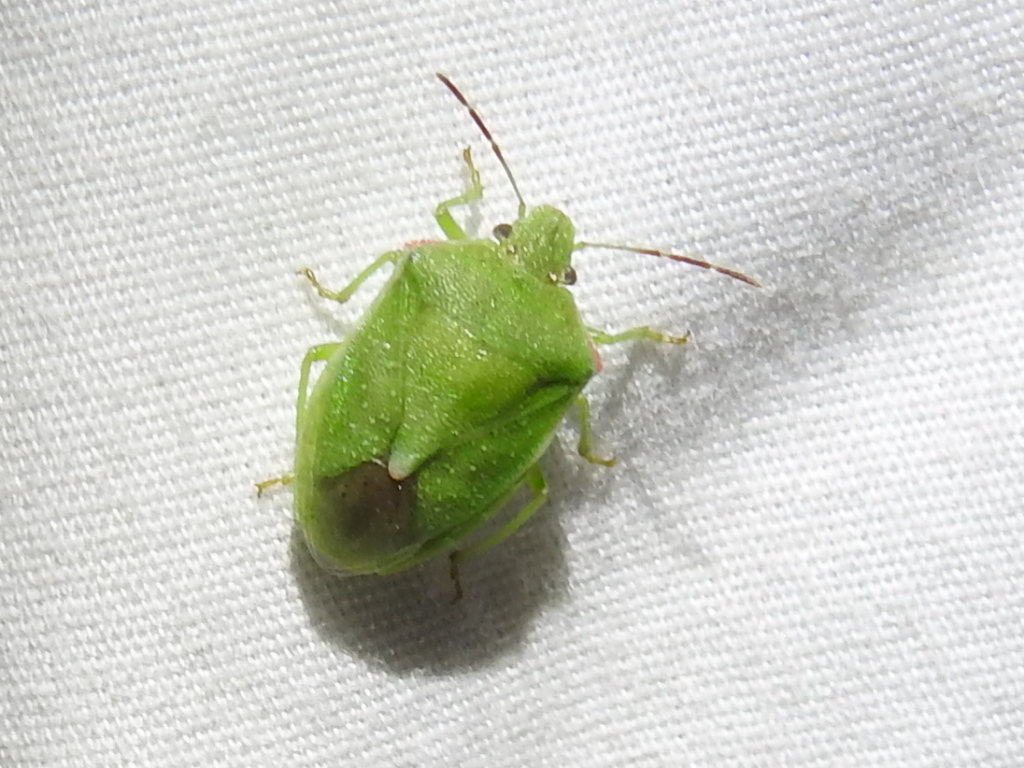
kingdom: Animalia
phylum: Arthropoda
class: Insecta
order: Hemiptera
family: Pentatomidae
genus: Thyanta
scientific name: Thyanta accerra
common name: Stink bug
